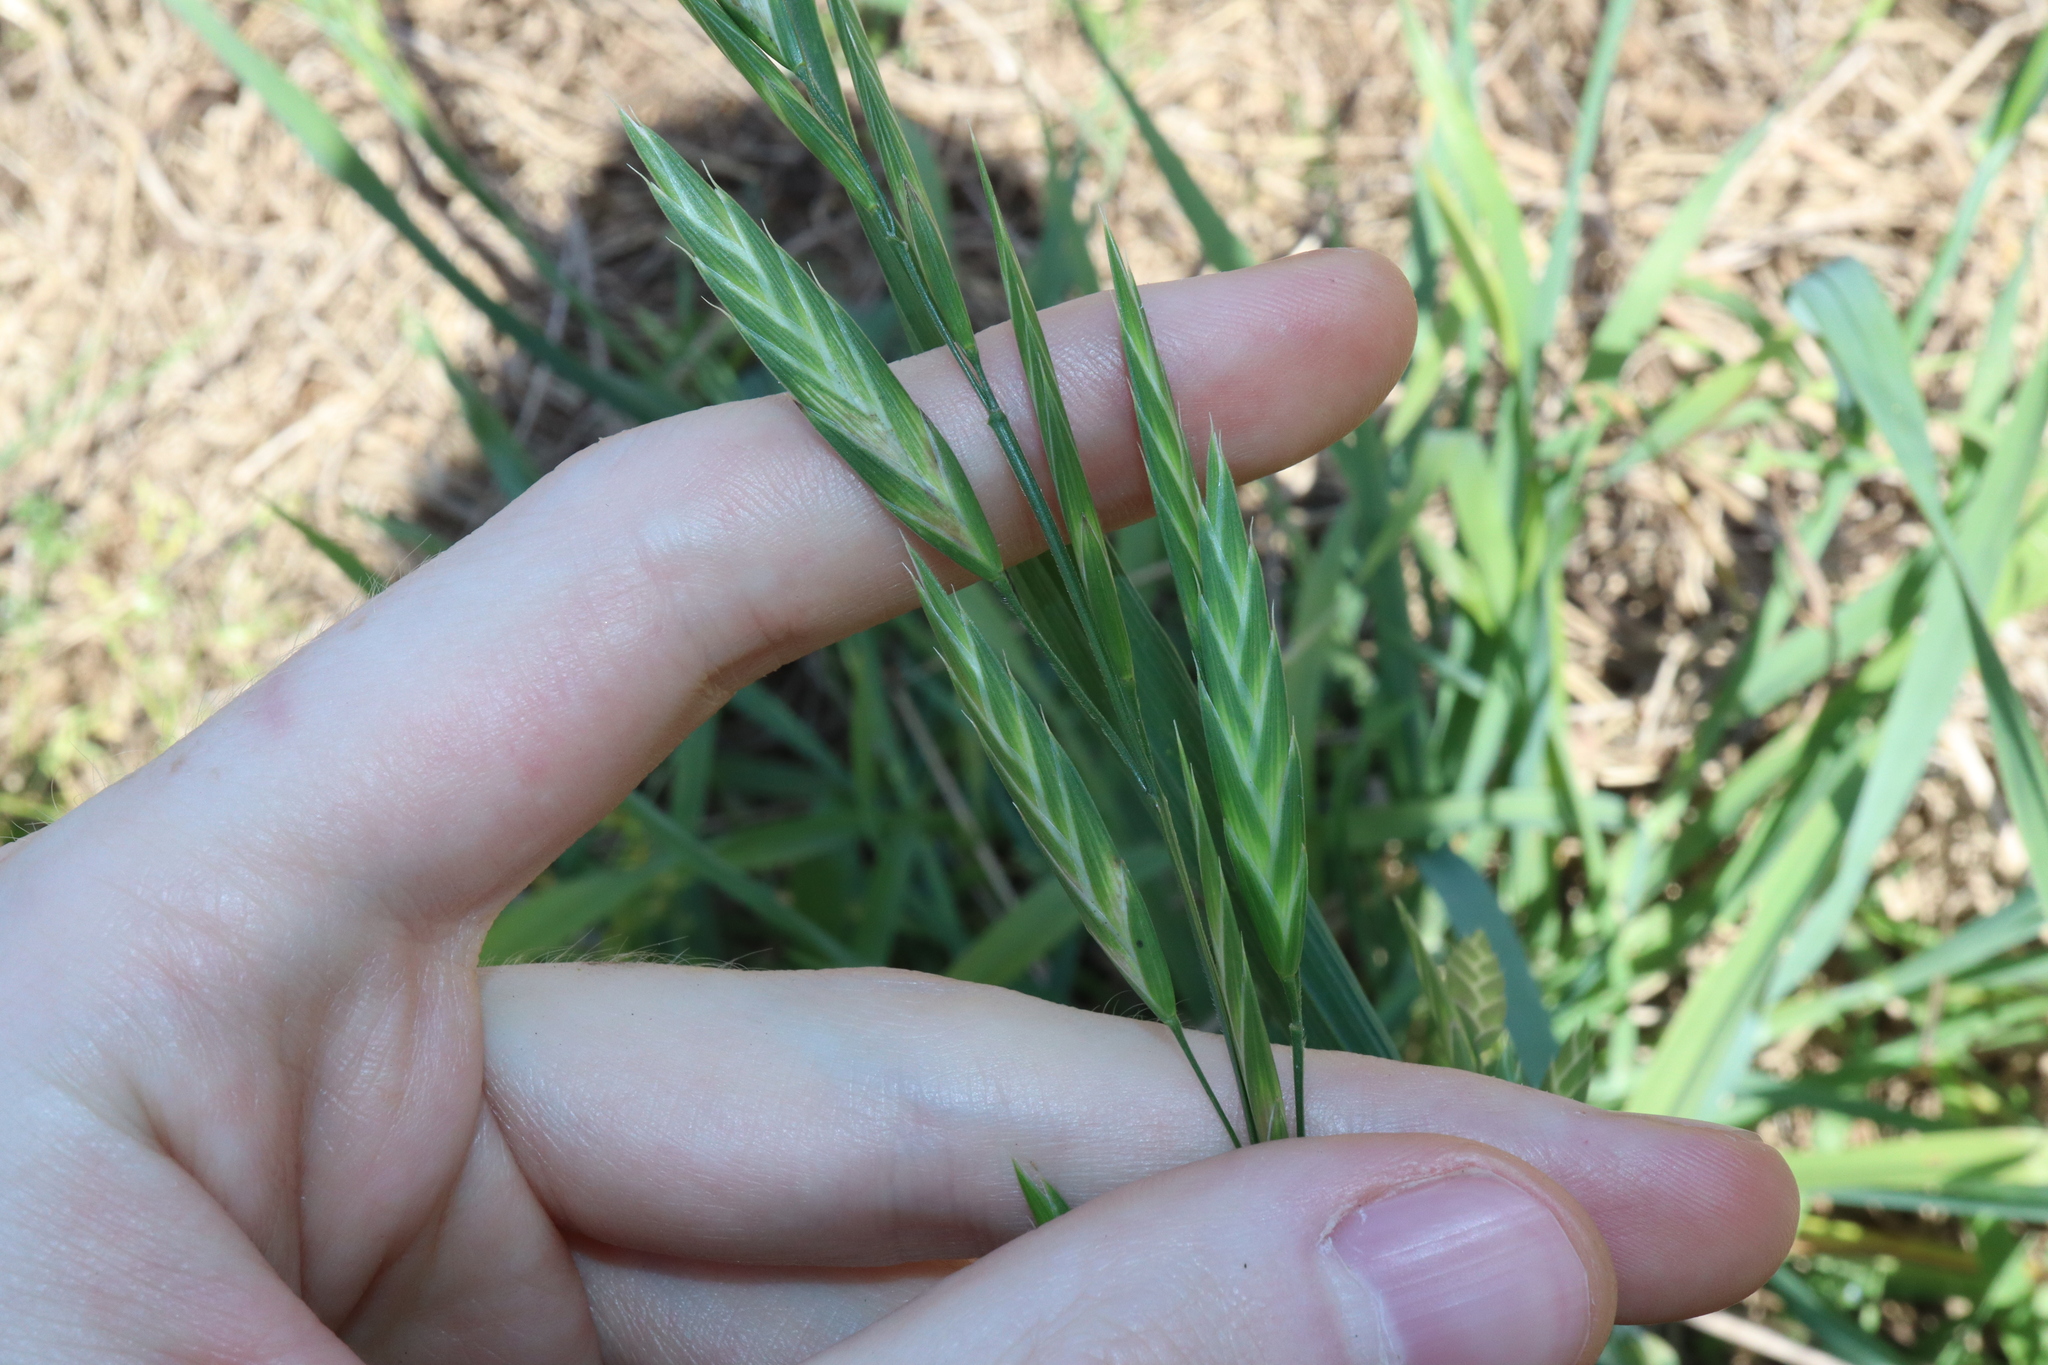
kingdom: Plantae
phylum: Tracheophyta
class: Liliopsida
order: Poales
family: Poaceae
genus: Bromus
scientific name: Bromus catharticus
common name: Rescuegrass
